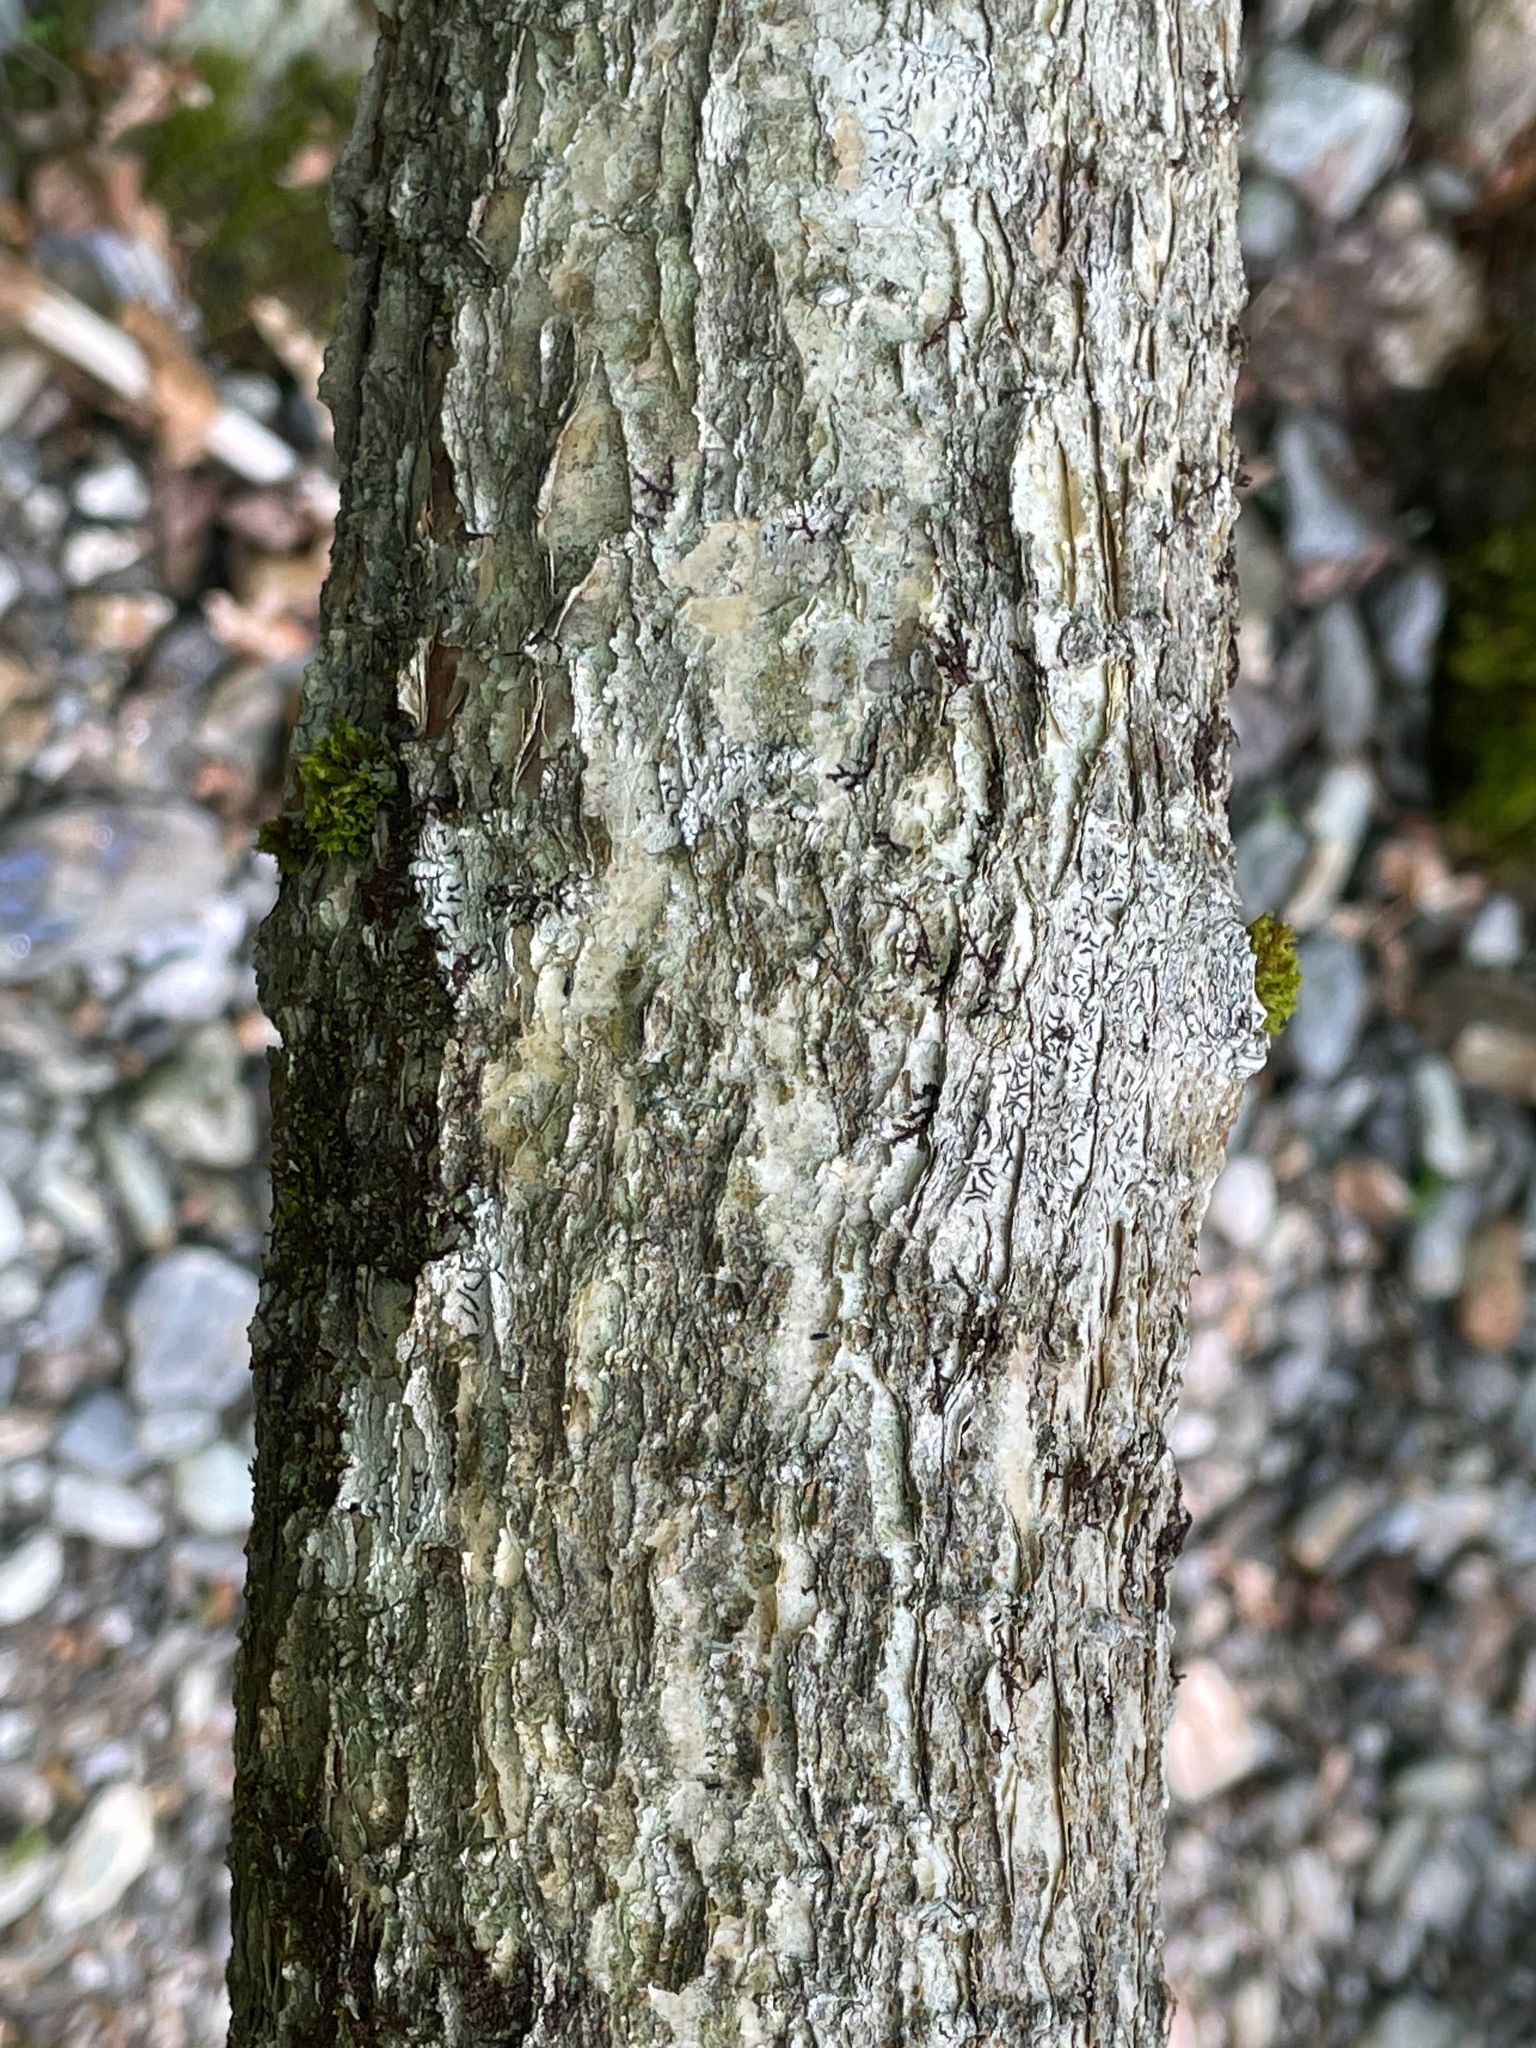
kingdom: Plantae
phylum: Tracheophyta
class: Magnoliopsida
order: Sapindales
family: Sapindaceae
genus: Acer
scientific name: Acer spicatum
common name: Mountain maple
